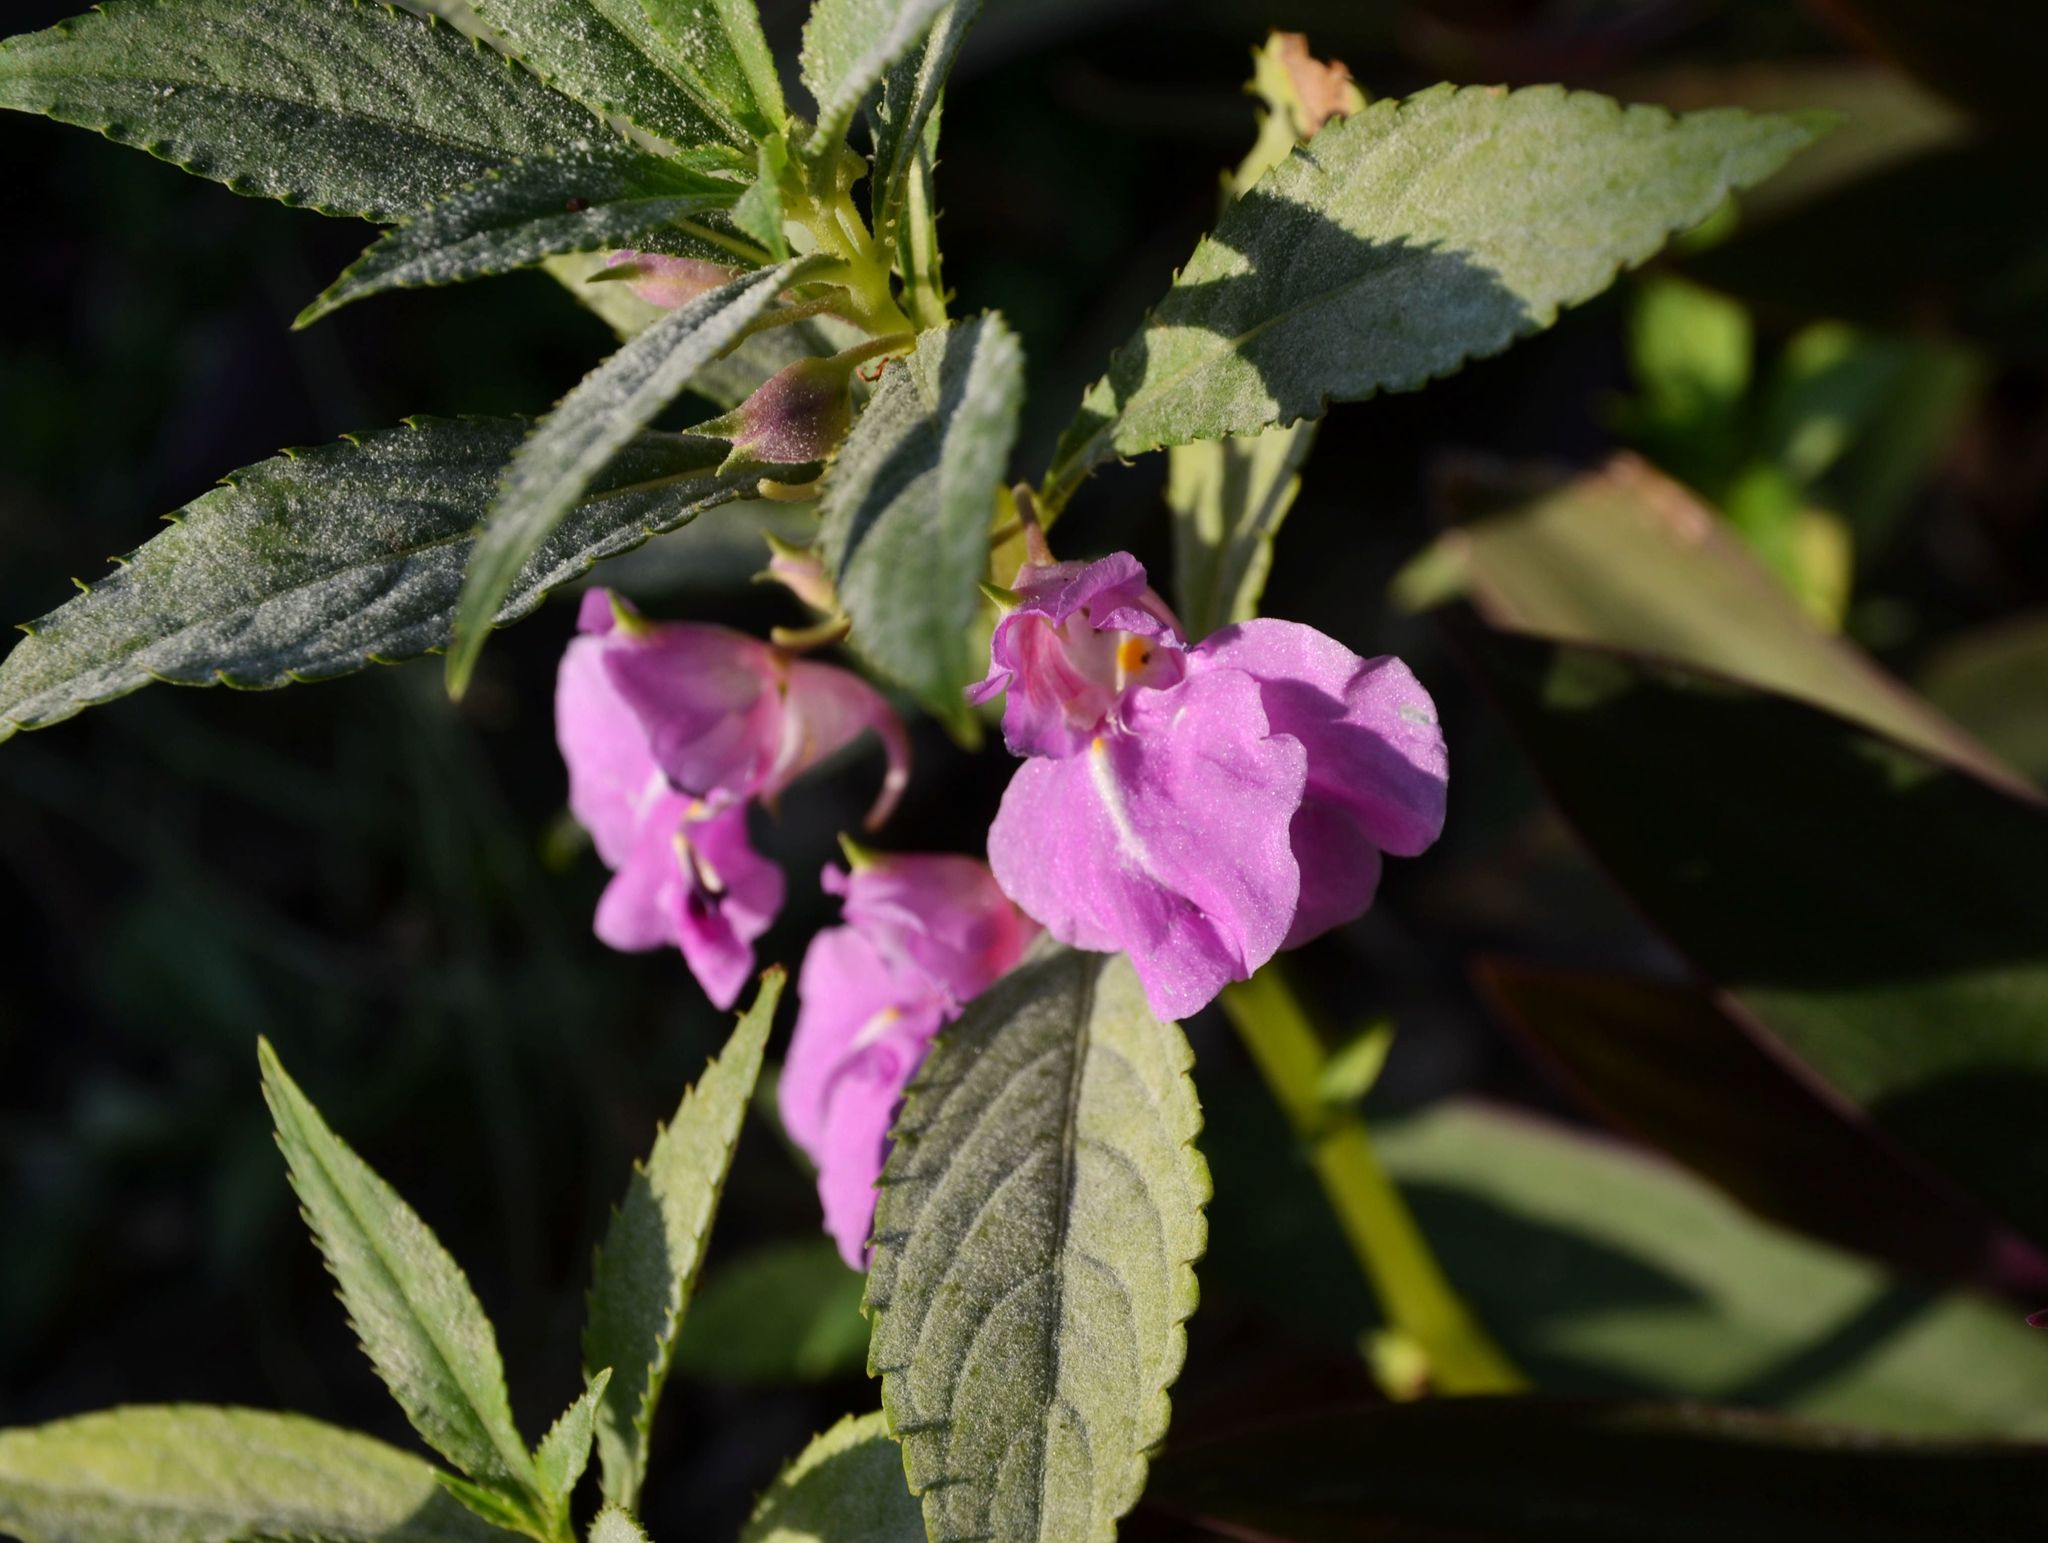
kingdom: Plantae
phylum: Tracheophyta
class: Magnoliopsida
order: Ericales
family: Balsaminaceae
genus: Impatiens
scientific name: Impatiens balsamina
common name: Balsam
